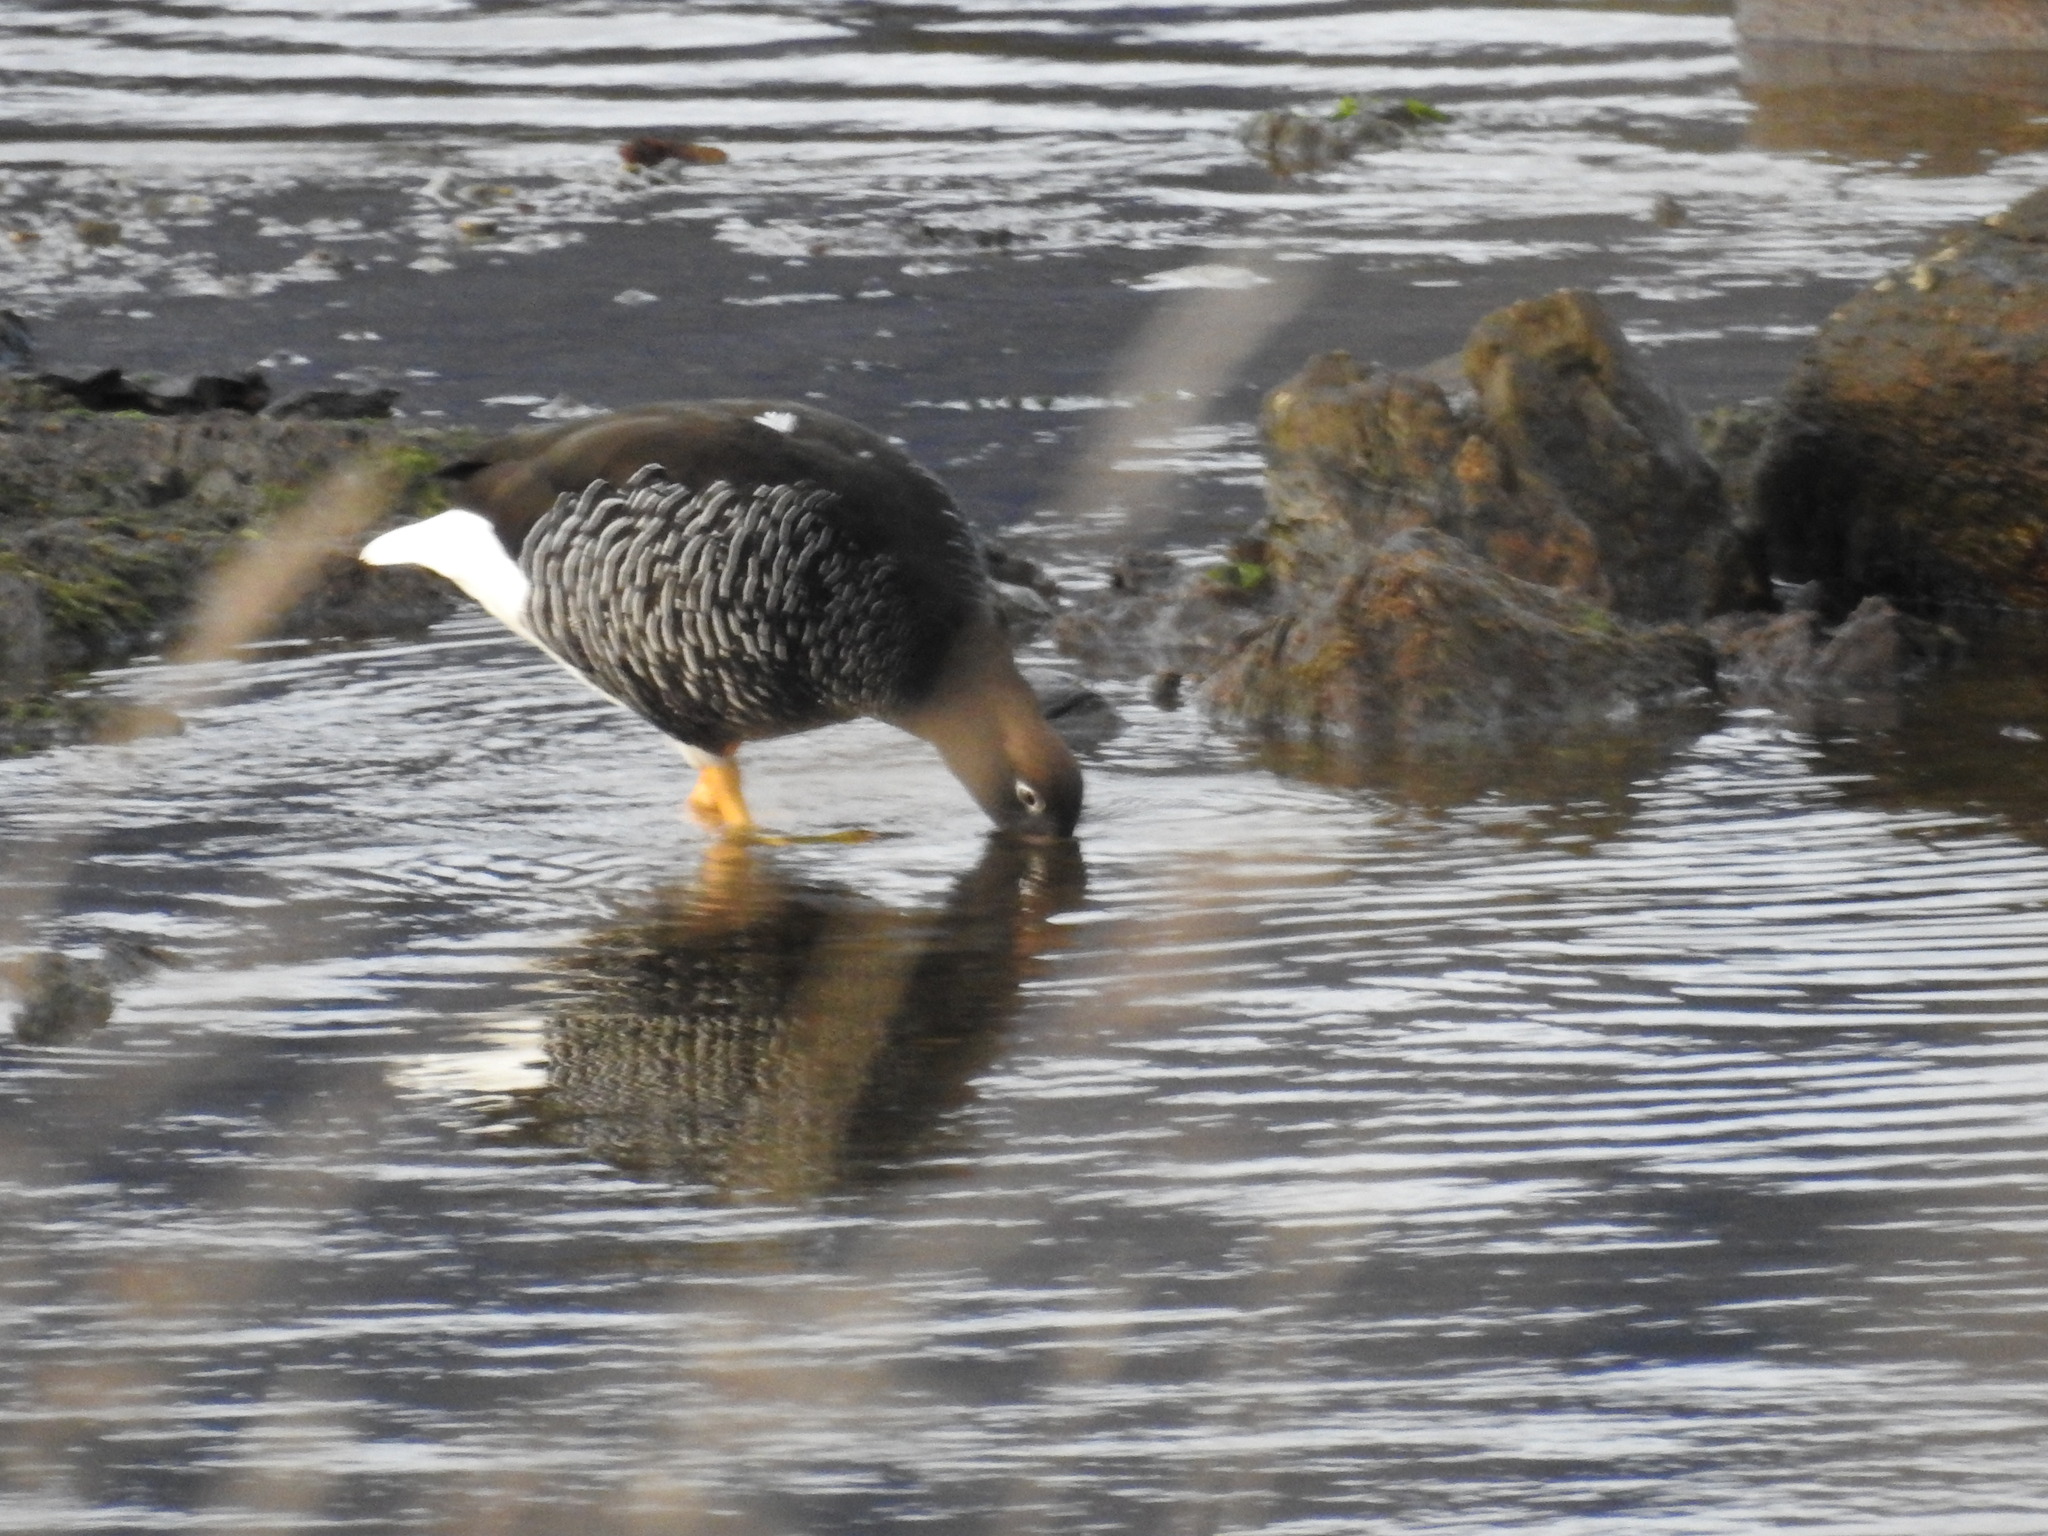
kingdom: Animalia
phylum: Chordata
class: Aves
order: Anseriformes
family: Anatidae
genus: Chloephaga
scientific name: Chloephaga hybrida
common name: Kelp goose
